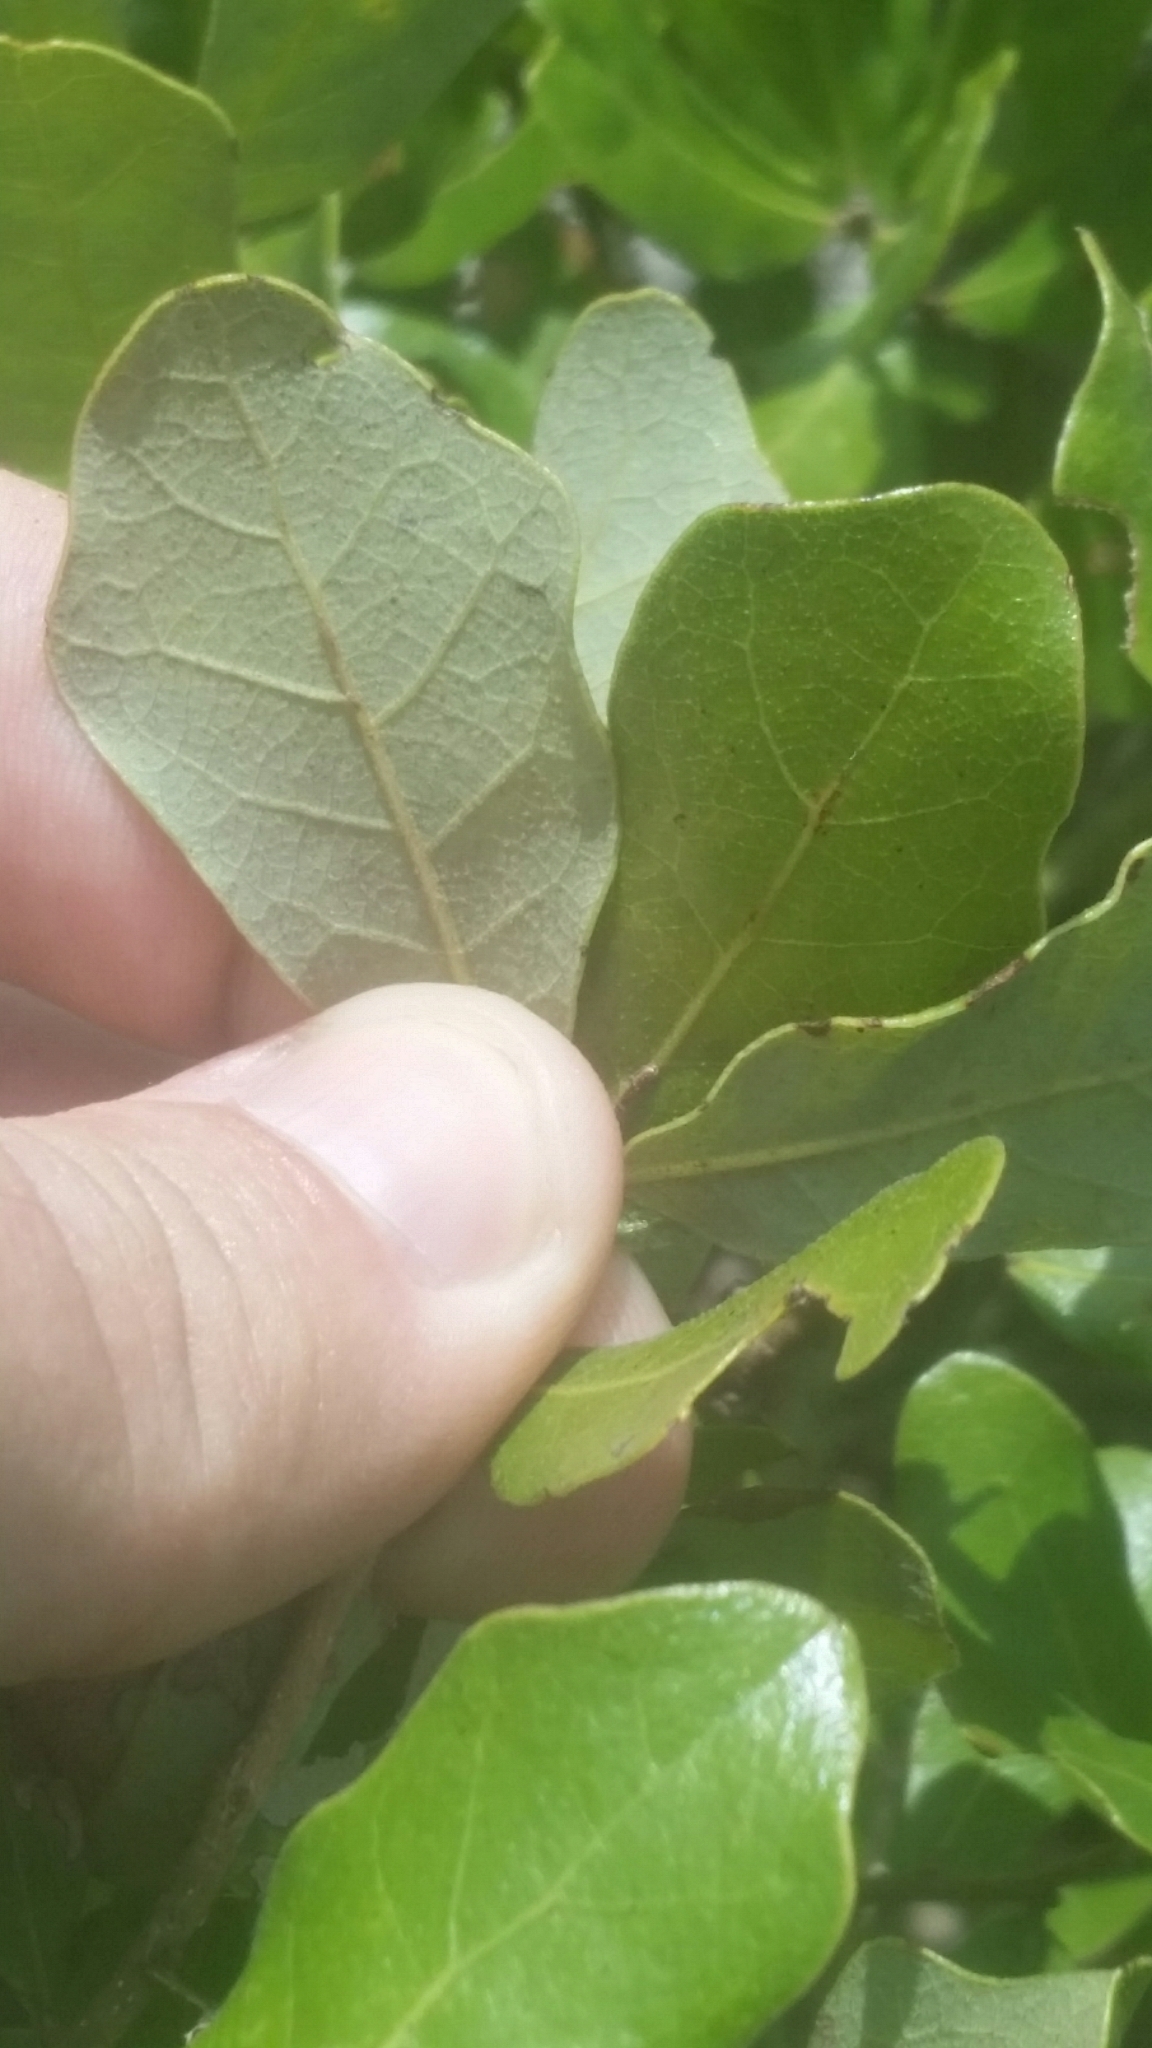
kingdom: Plantae
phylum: Tracheophyta
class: Magnoliopsida
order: Fagales
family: Fagaceae
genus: Quercus
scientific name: Quercus chapmanii
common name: Chapman oak
